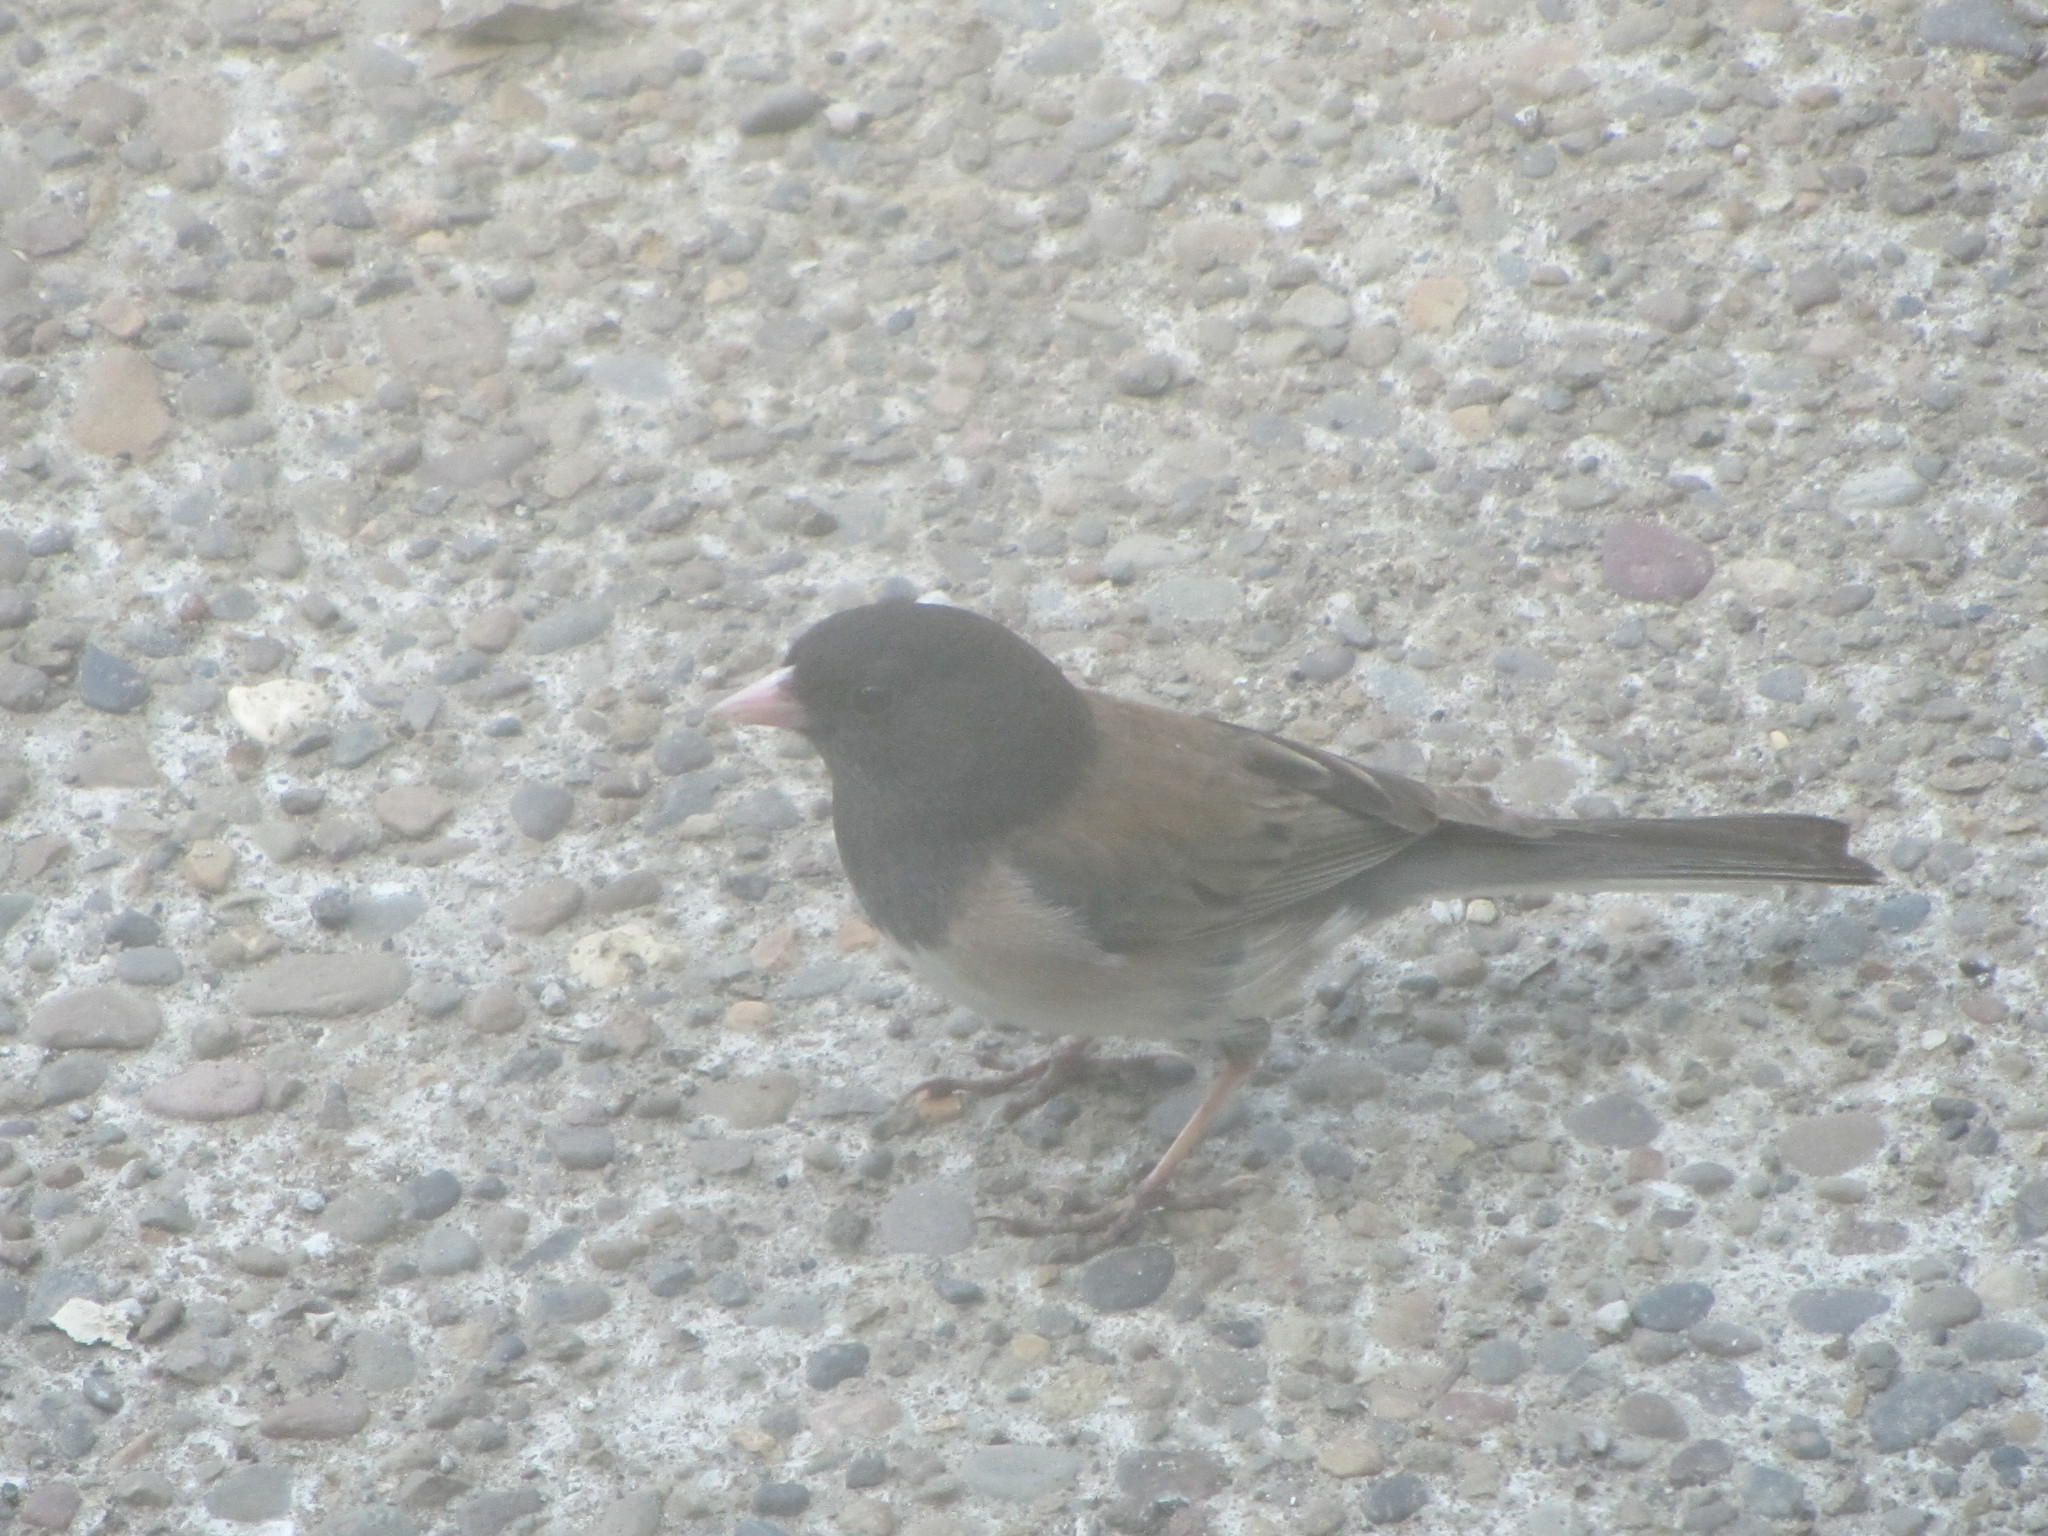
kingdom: Animalia
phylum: Chordata
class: Aves
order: Passeriformes
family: Passerellidae
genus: Junco
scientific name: Junco hyemalis
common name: Dark-eyed junco
